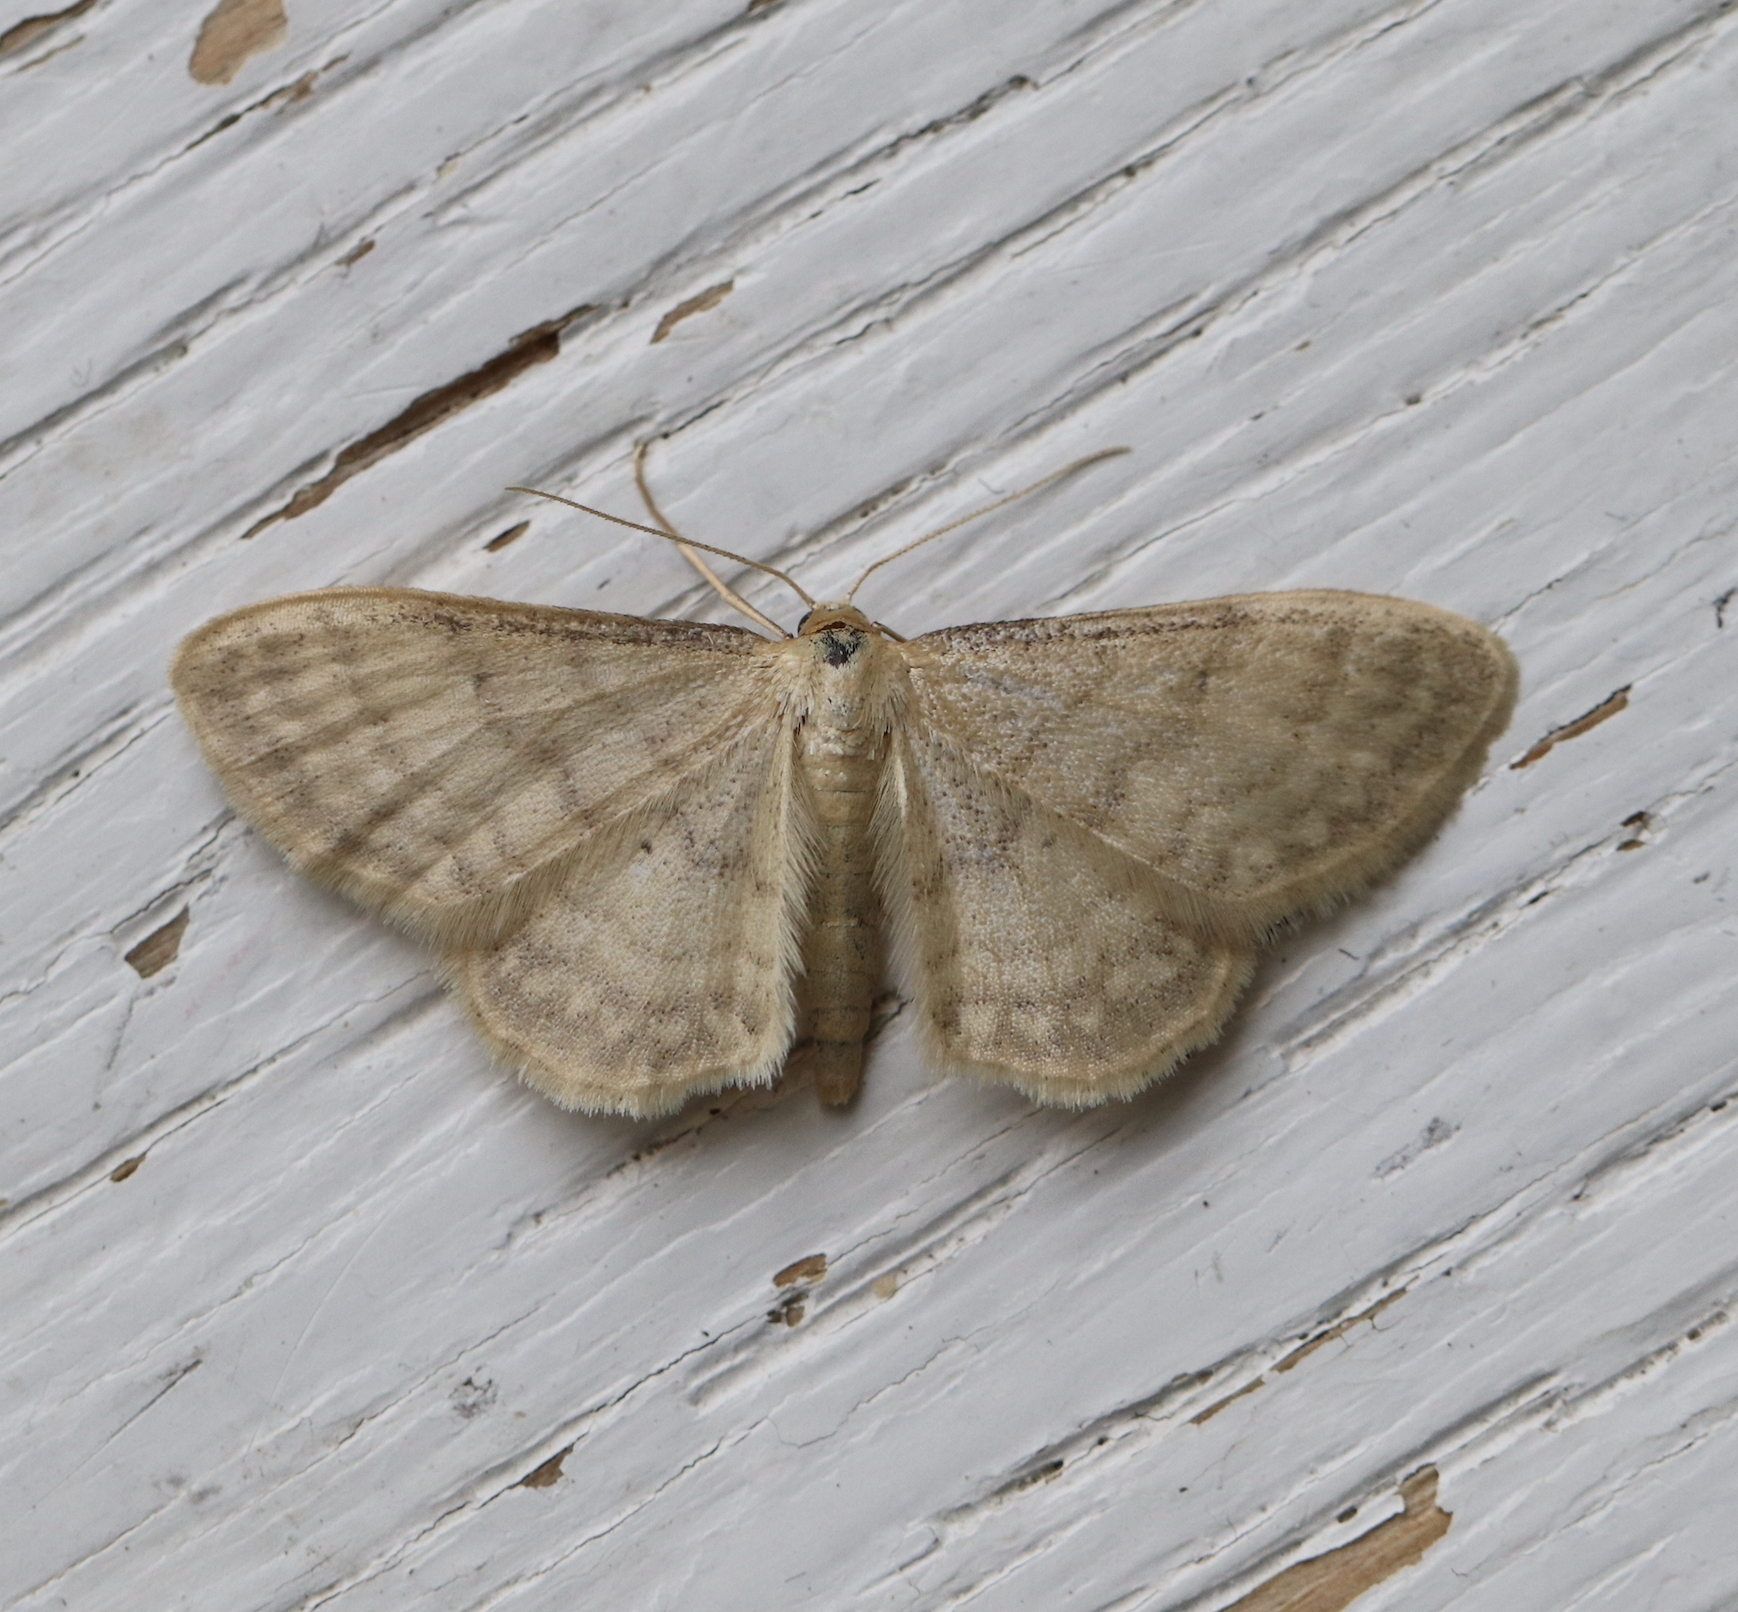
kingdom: Animalia
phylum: Arthropoda
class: Insecta
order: Lepidoptera
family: Geometridae
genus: Idaea
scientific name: Idaea dilutaria
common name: Silky wave
